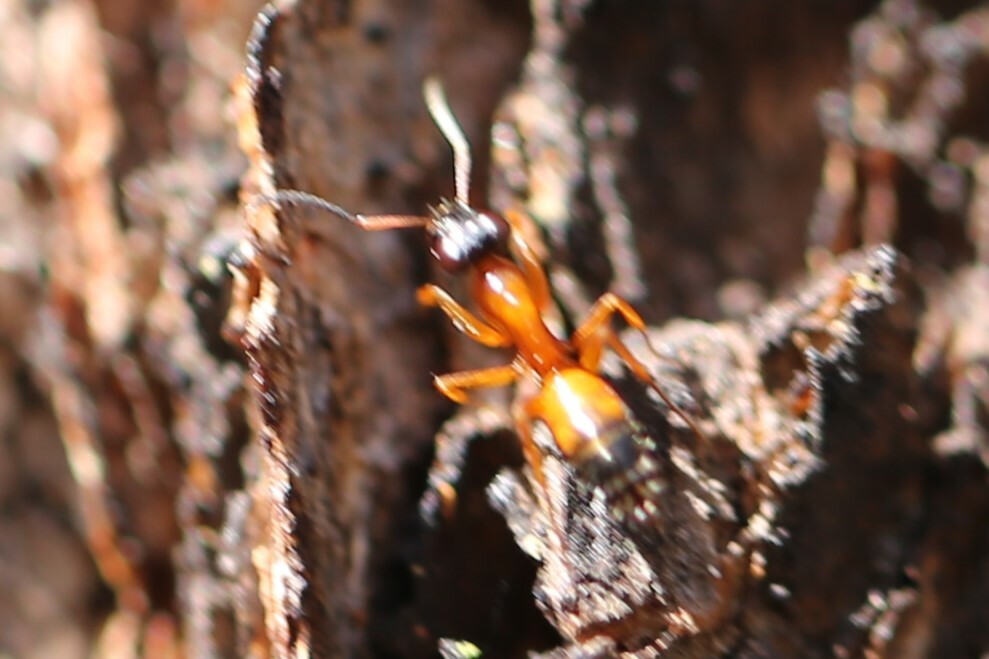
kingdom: Animalia
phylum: Arthropoda
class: Insecta
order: Hymenoptera
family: Formicidae
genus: Opisthopsis
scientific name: Opisthopsis rufithorax
